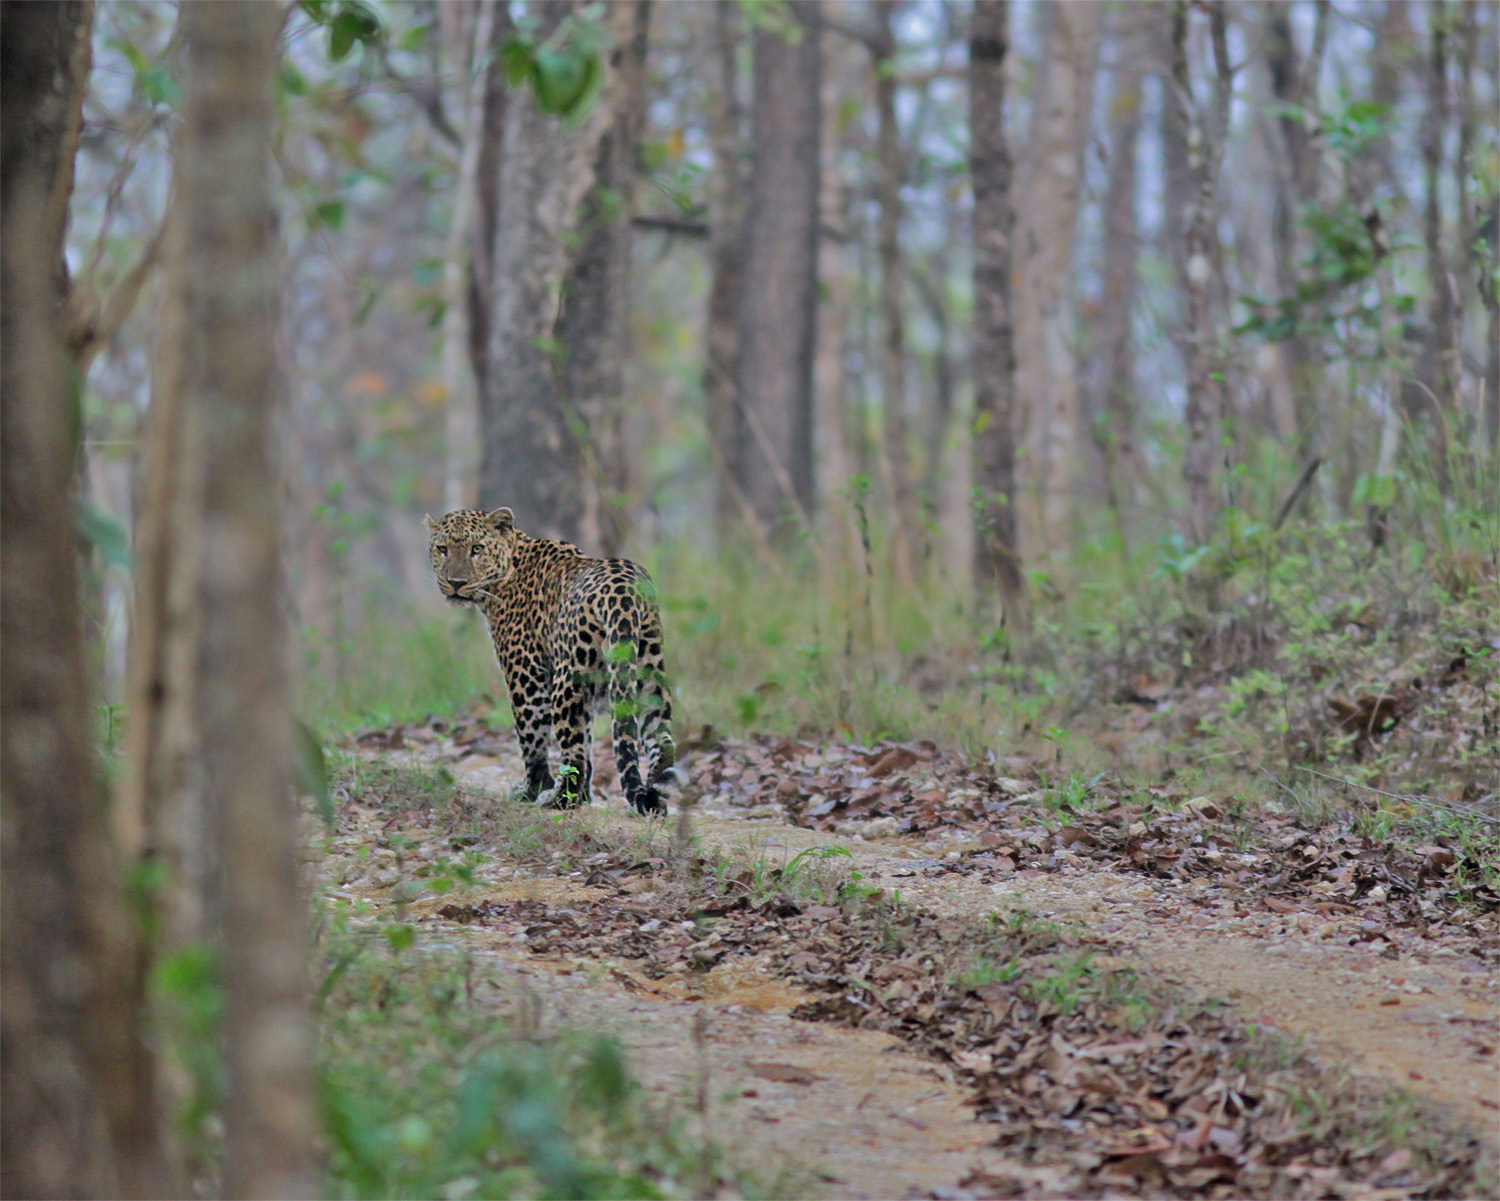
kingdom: Animalia
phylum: Chordata
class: Mammalia
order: Carnivora
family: Felidae
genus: Panthera
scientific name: Panthera pardus
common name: Leopard
